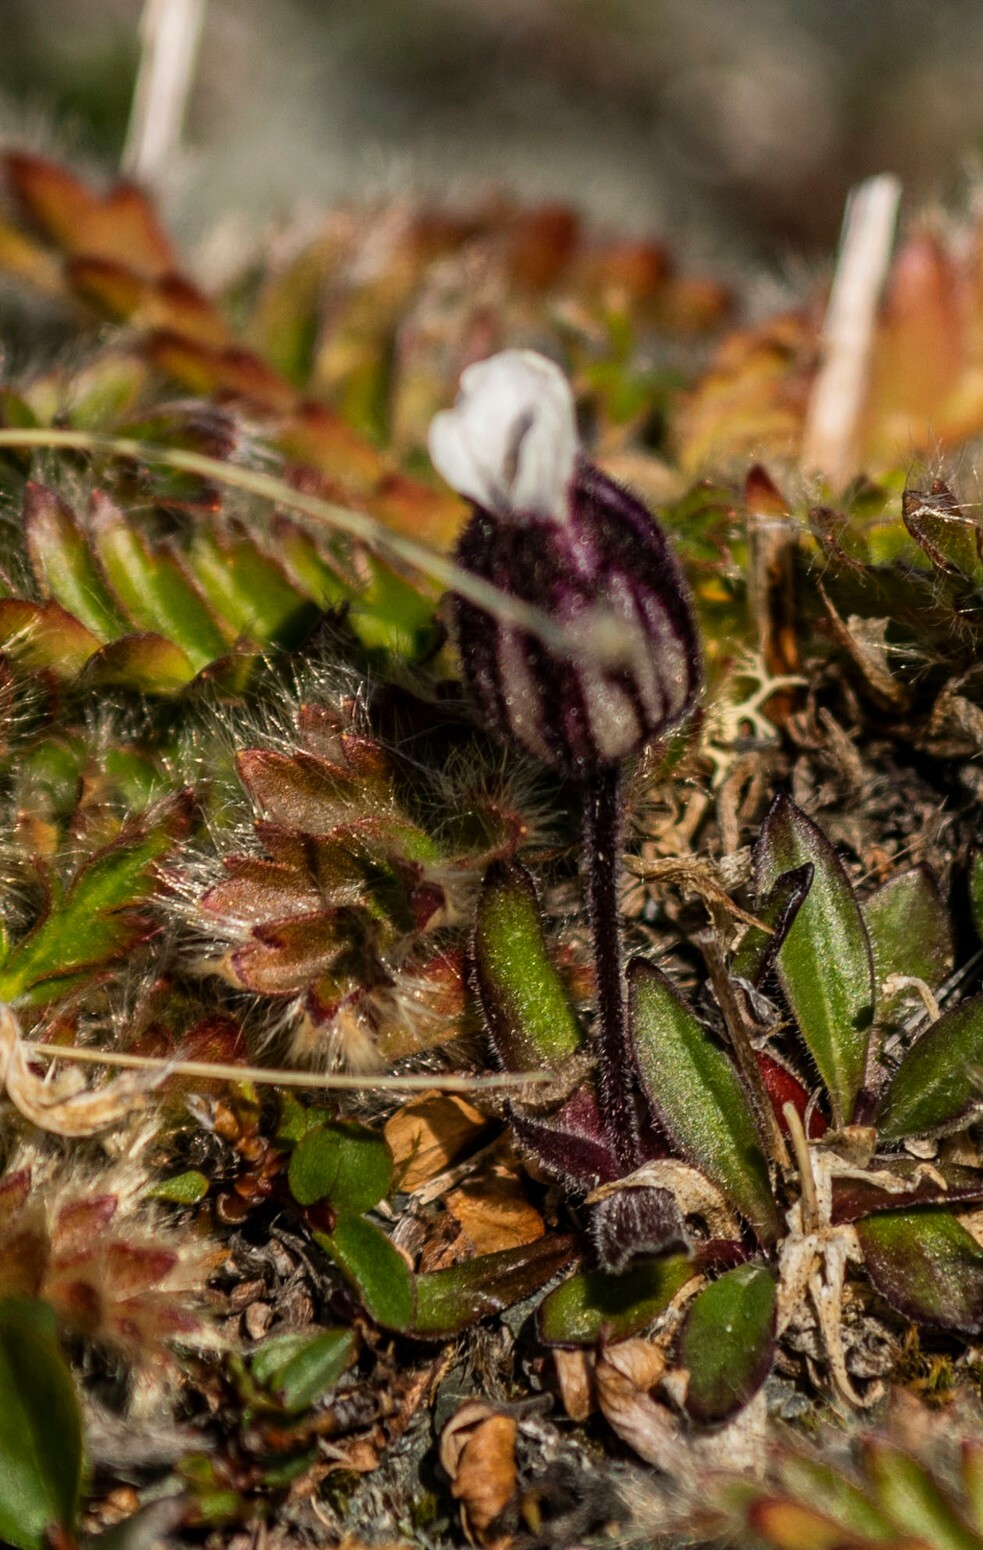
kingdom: Plantae
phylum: Tracheophyta
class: Magnoliopsida
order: Caryophyllales
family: Caryophyllaceae
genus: Silene
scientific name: Silene involucrata
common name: Greater arctic campion
